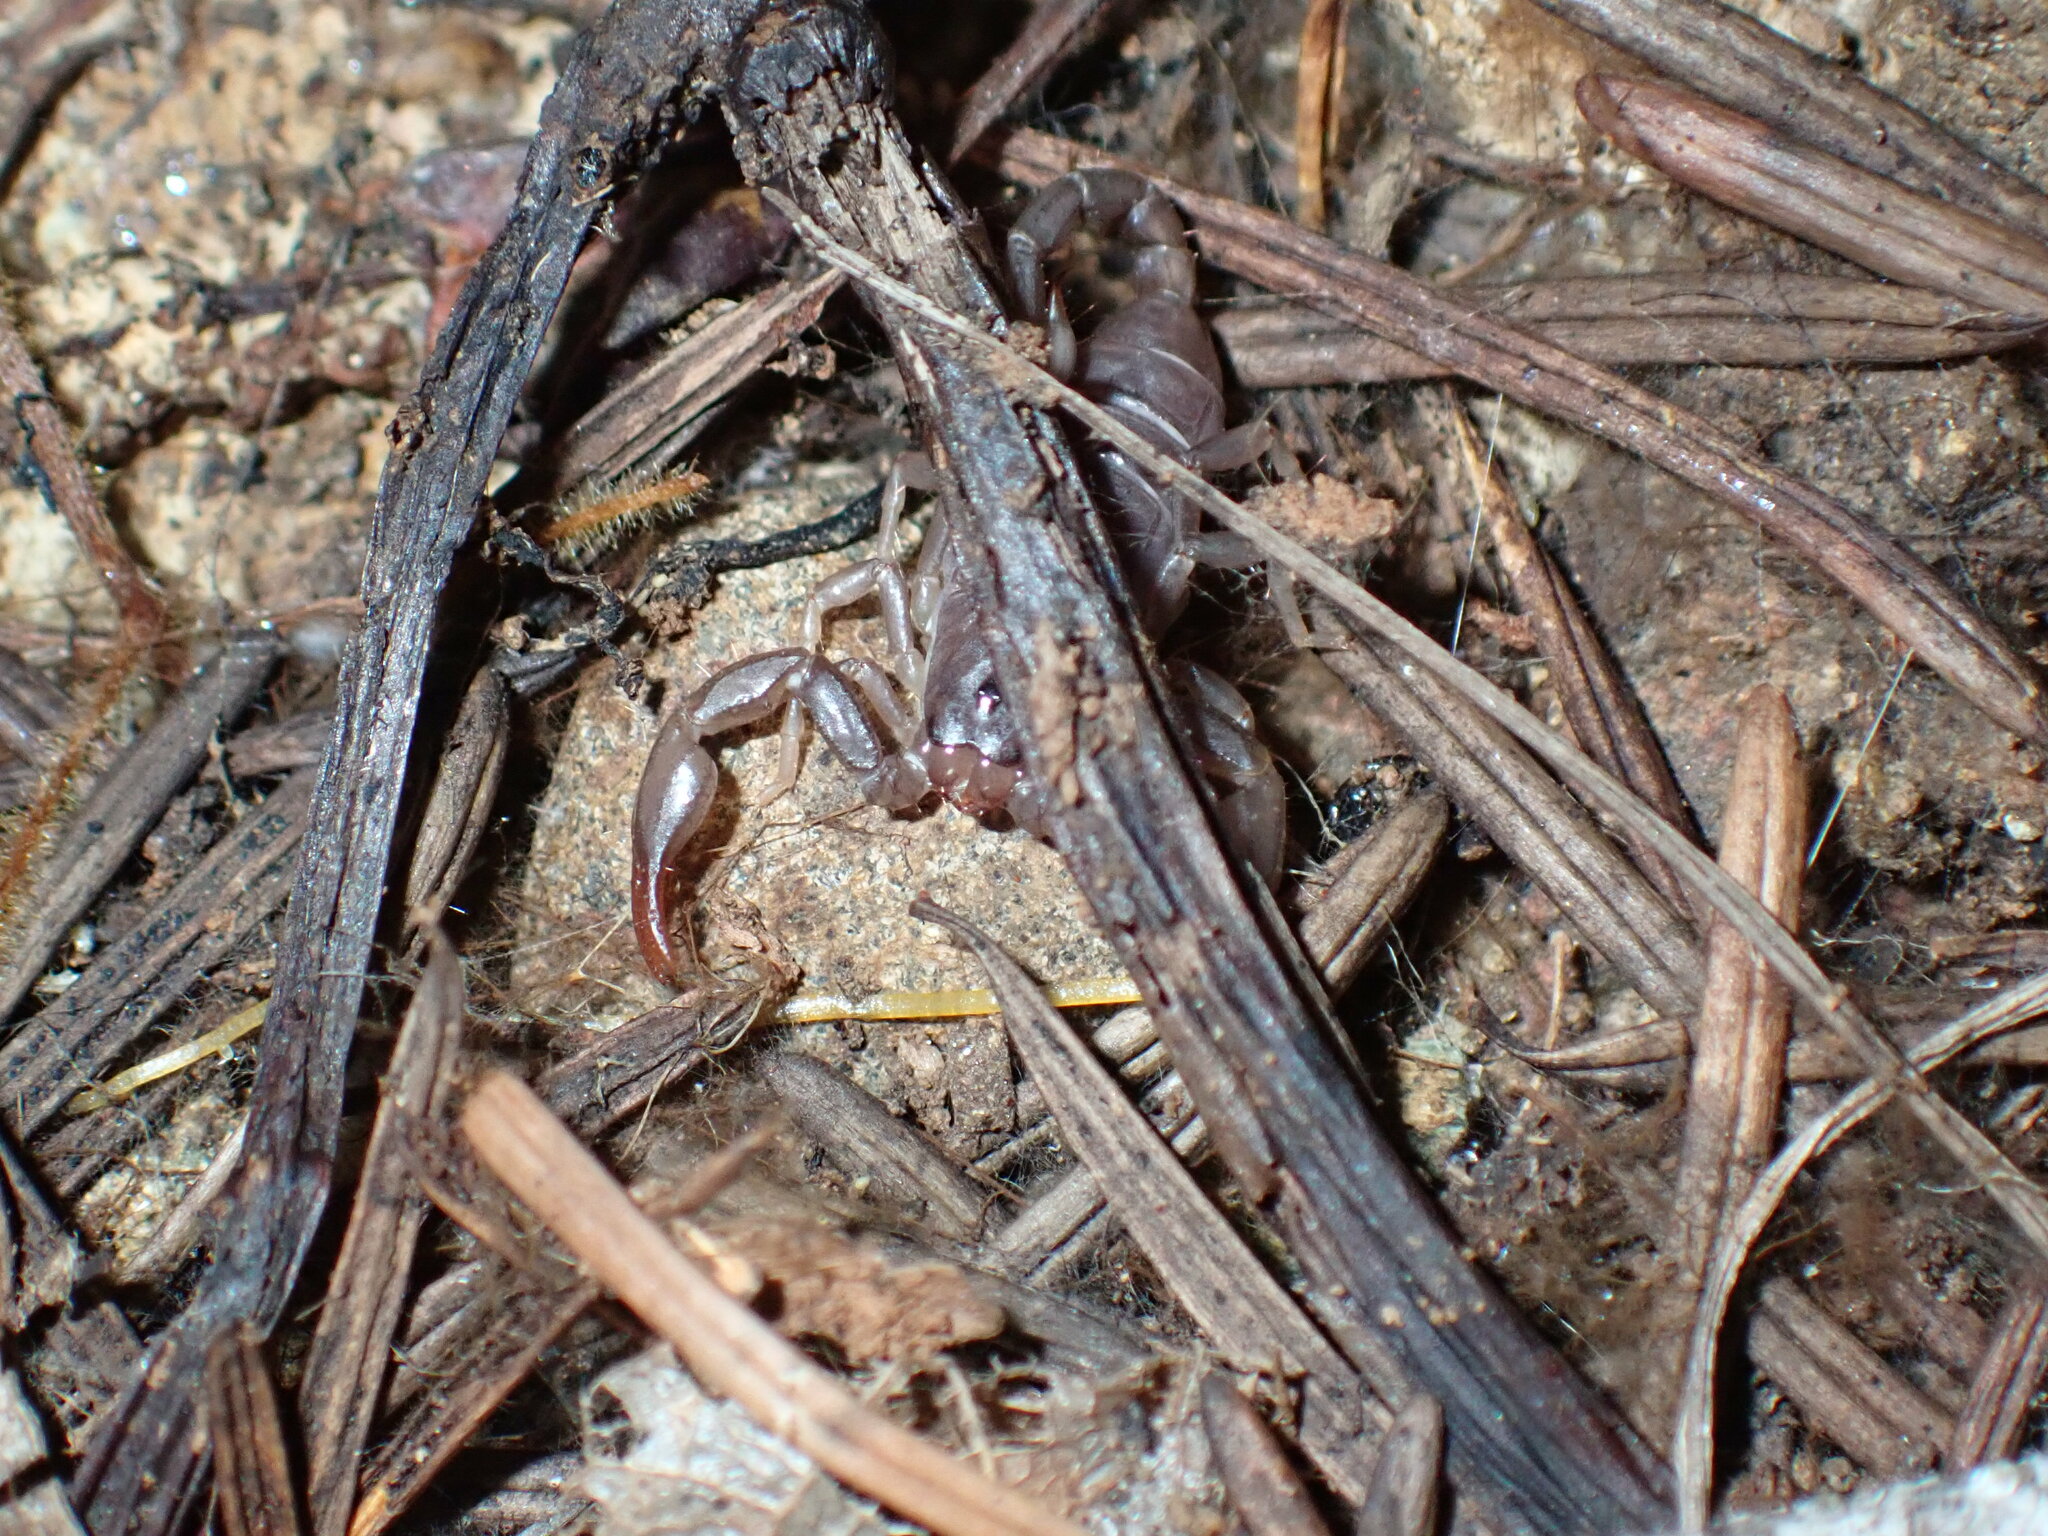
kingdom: Animalia
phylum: Arthropoda
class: Arachnida
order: Scorpiones
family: Chactidae
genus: Uroctonus
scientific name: Uroctonus mordax
